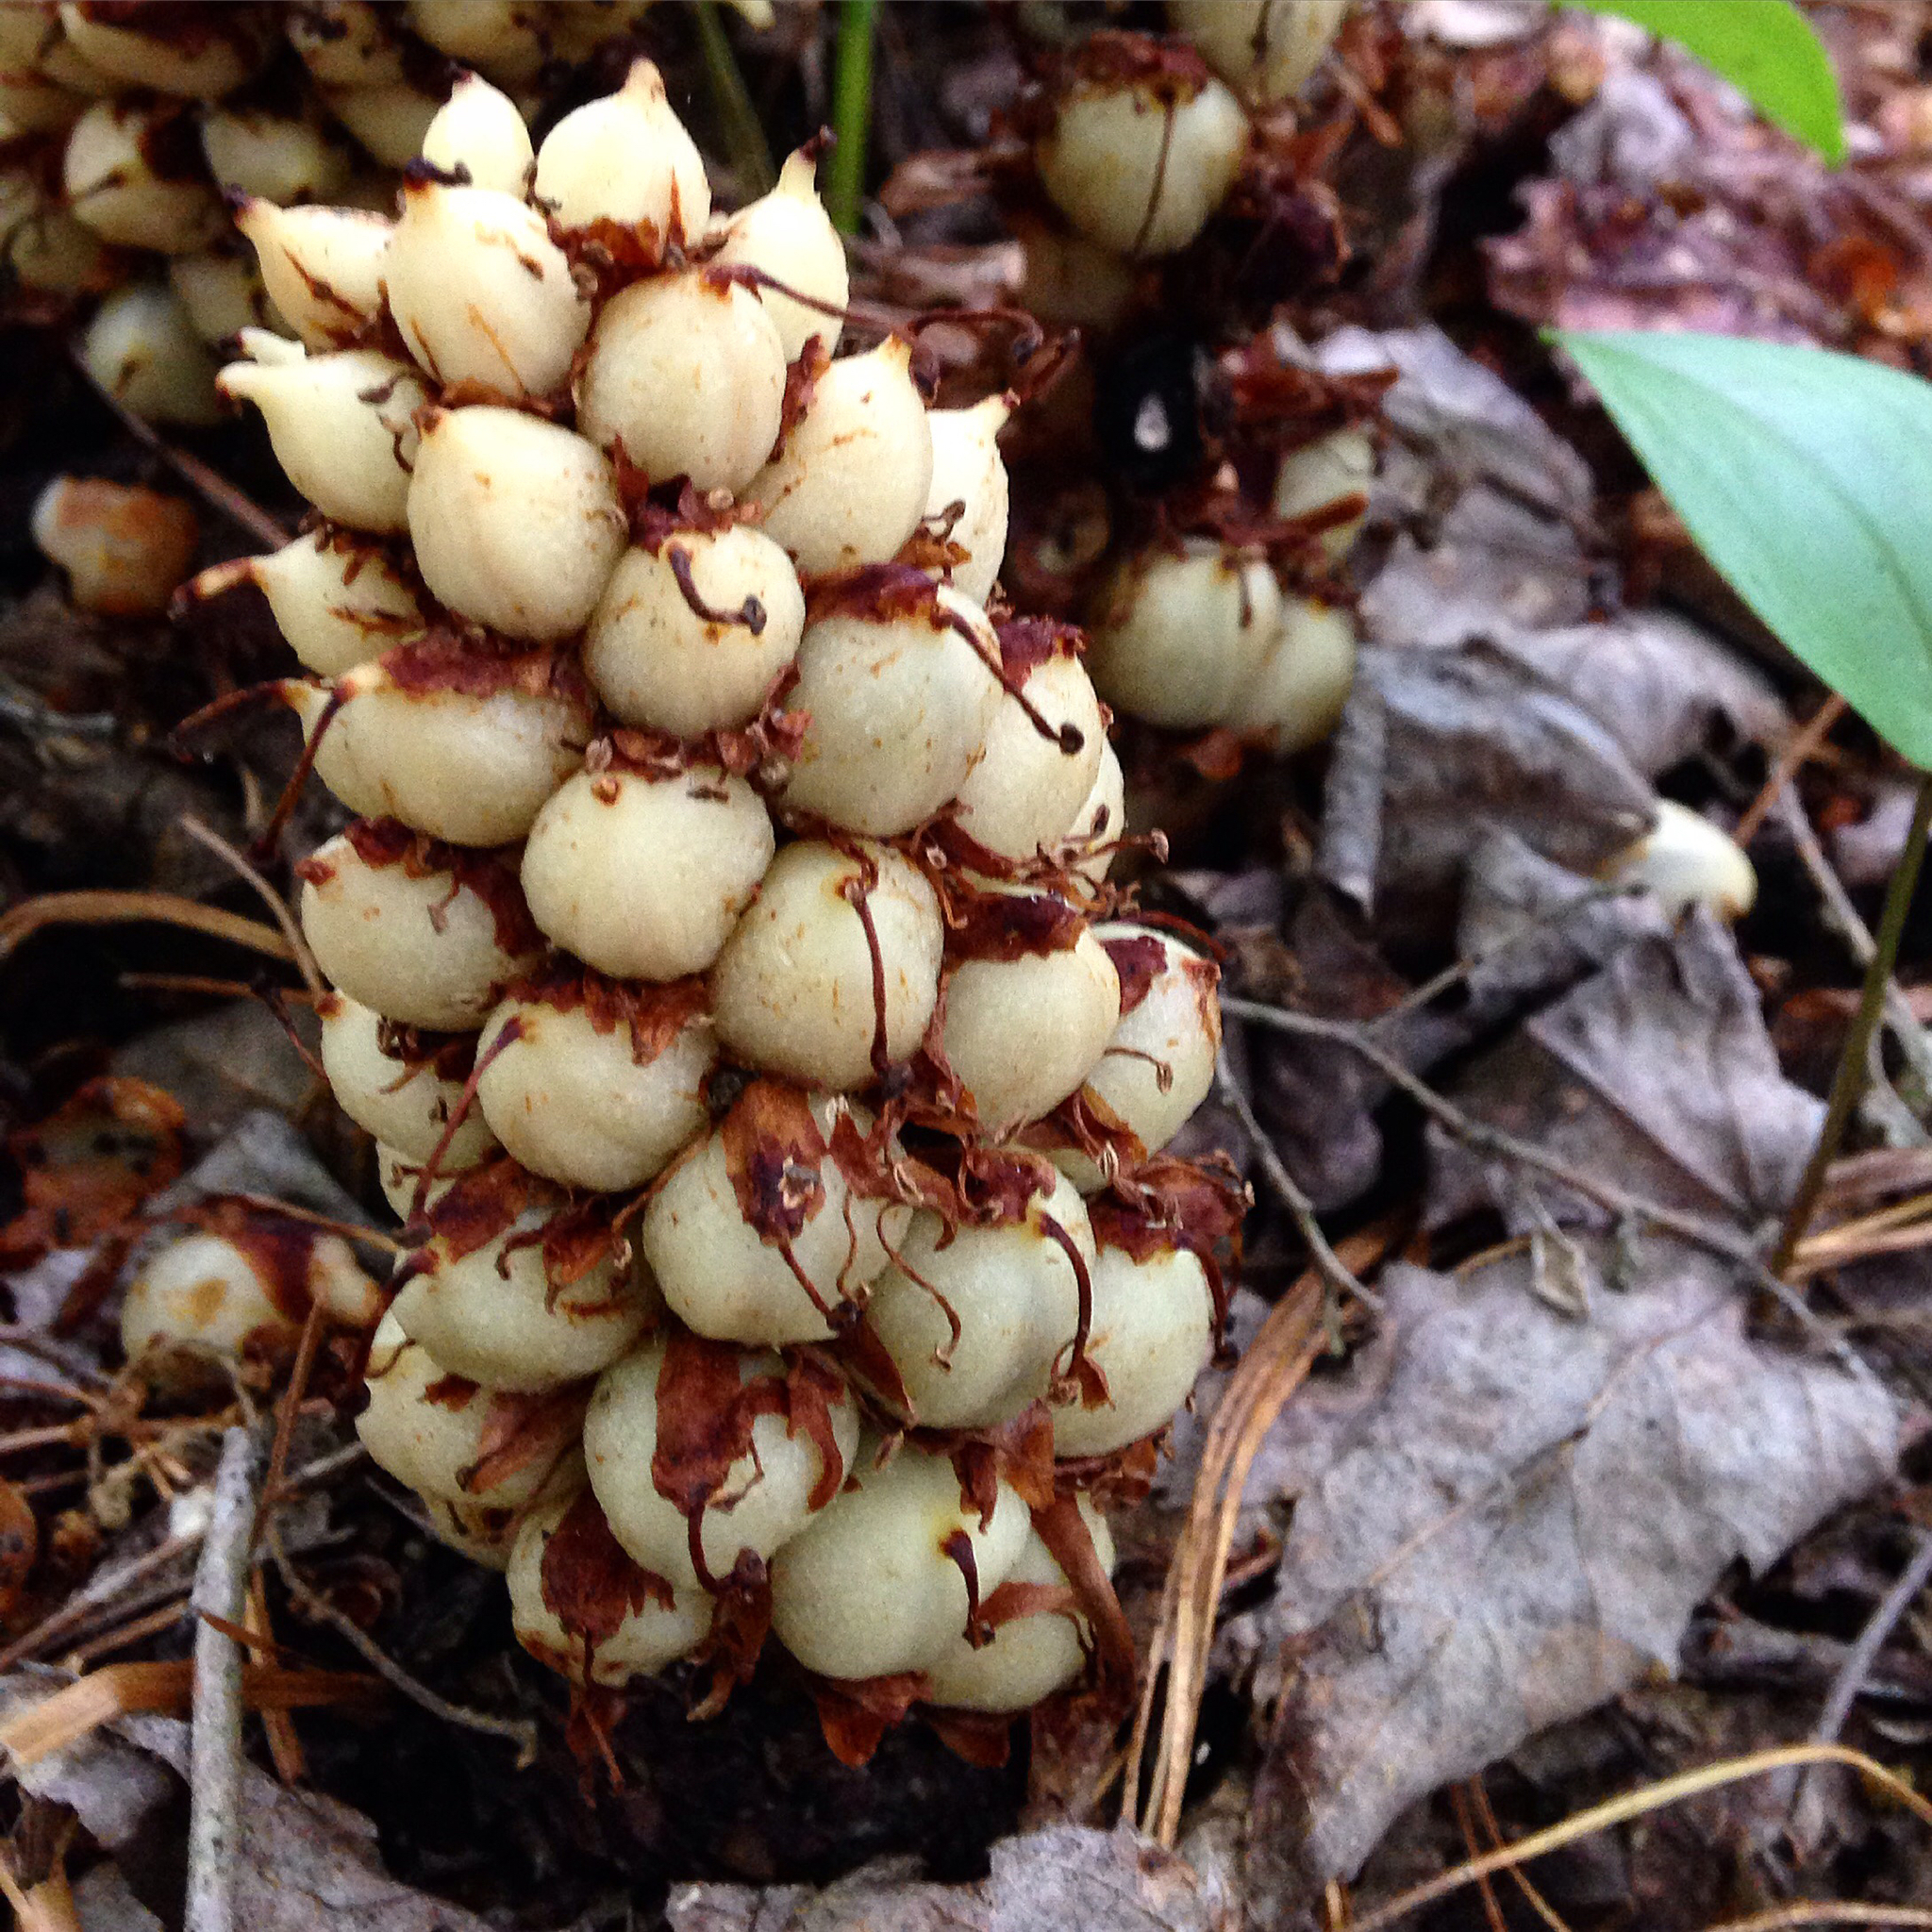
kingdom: Plantae
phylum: Tracheophyta
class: Magnoliopsida
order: Lamiales
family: Orobanchaceae
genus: Conopholis
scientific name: Conopholis americana
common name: American cancer-root
